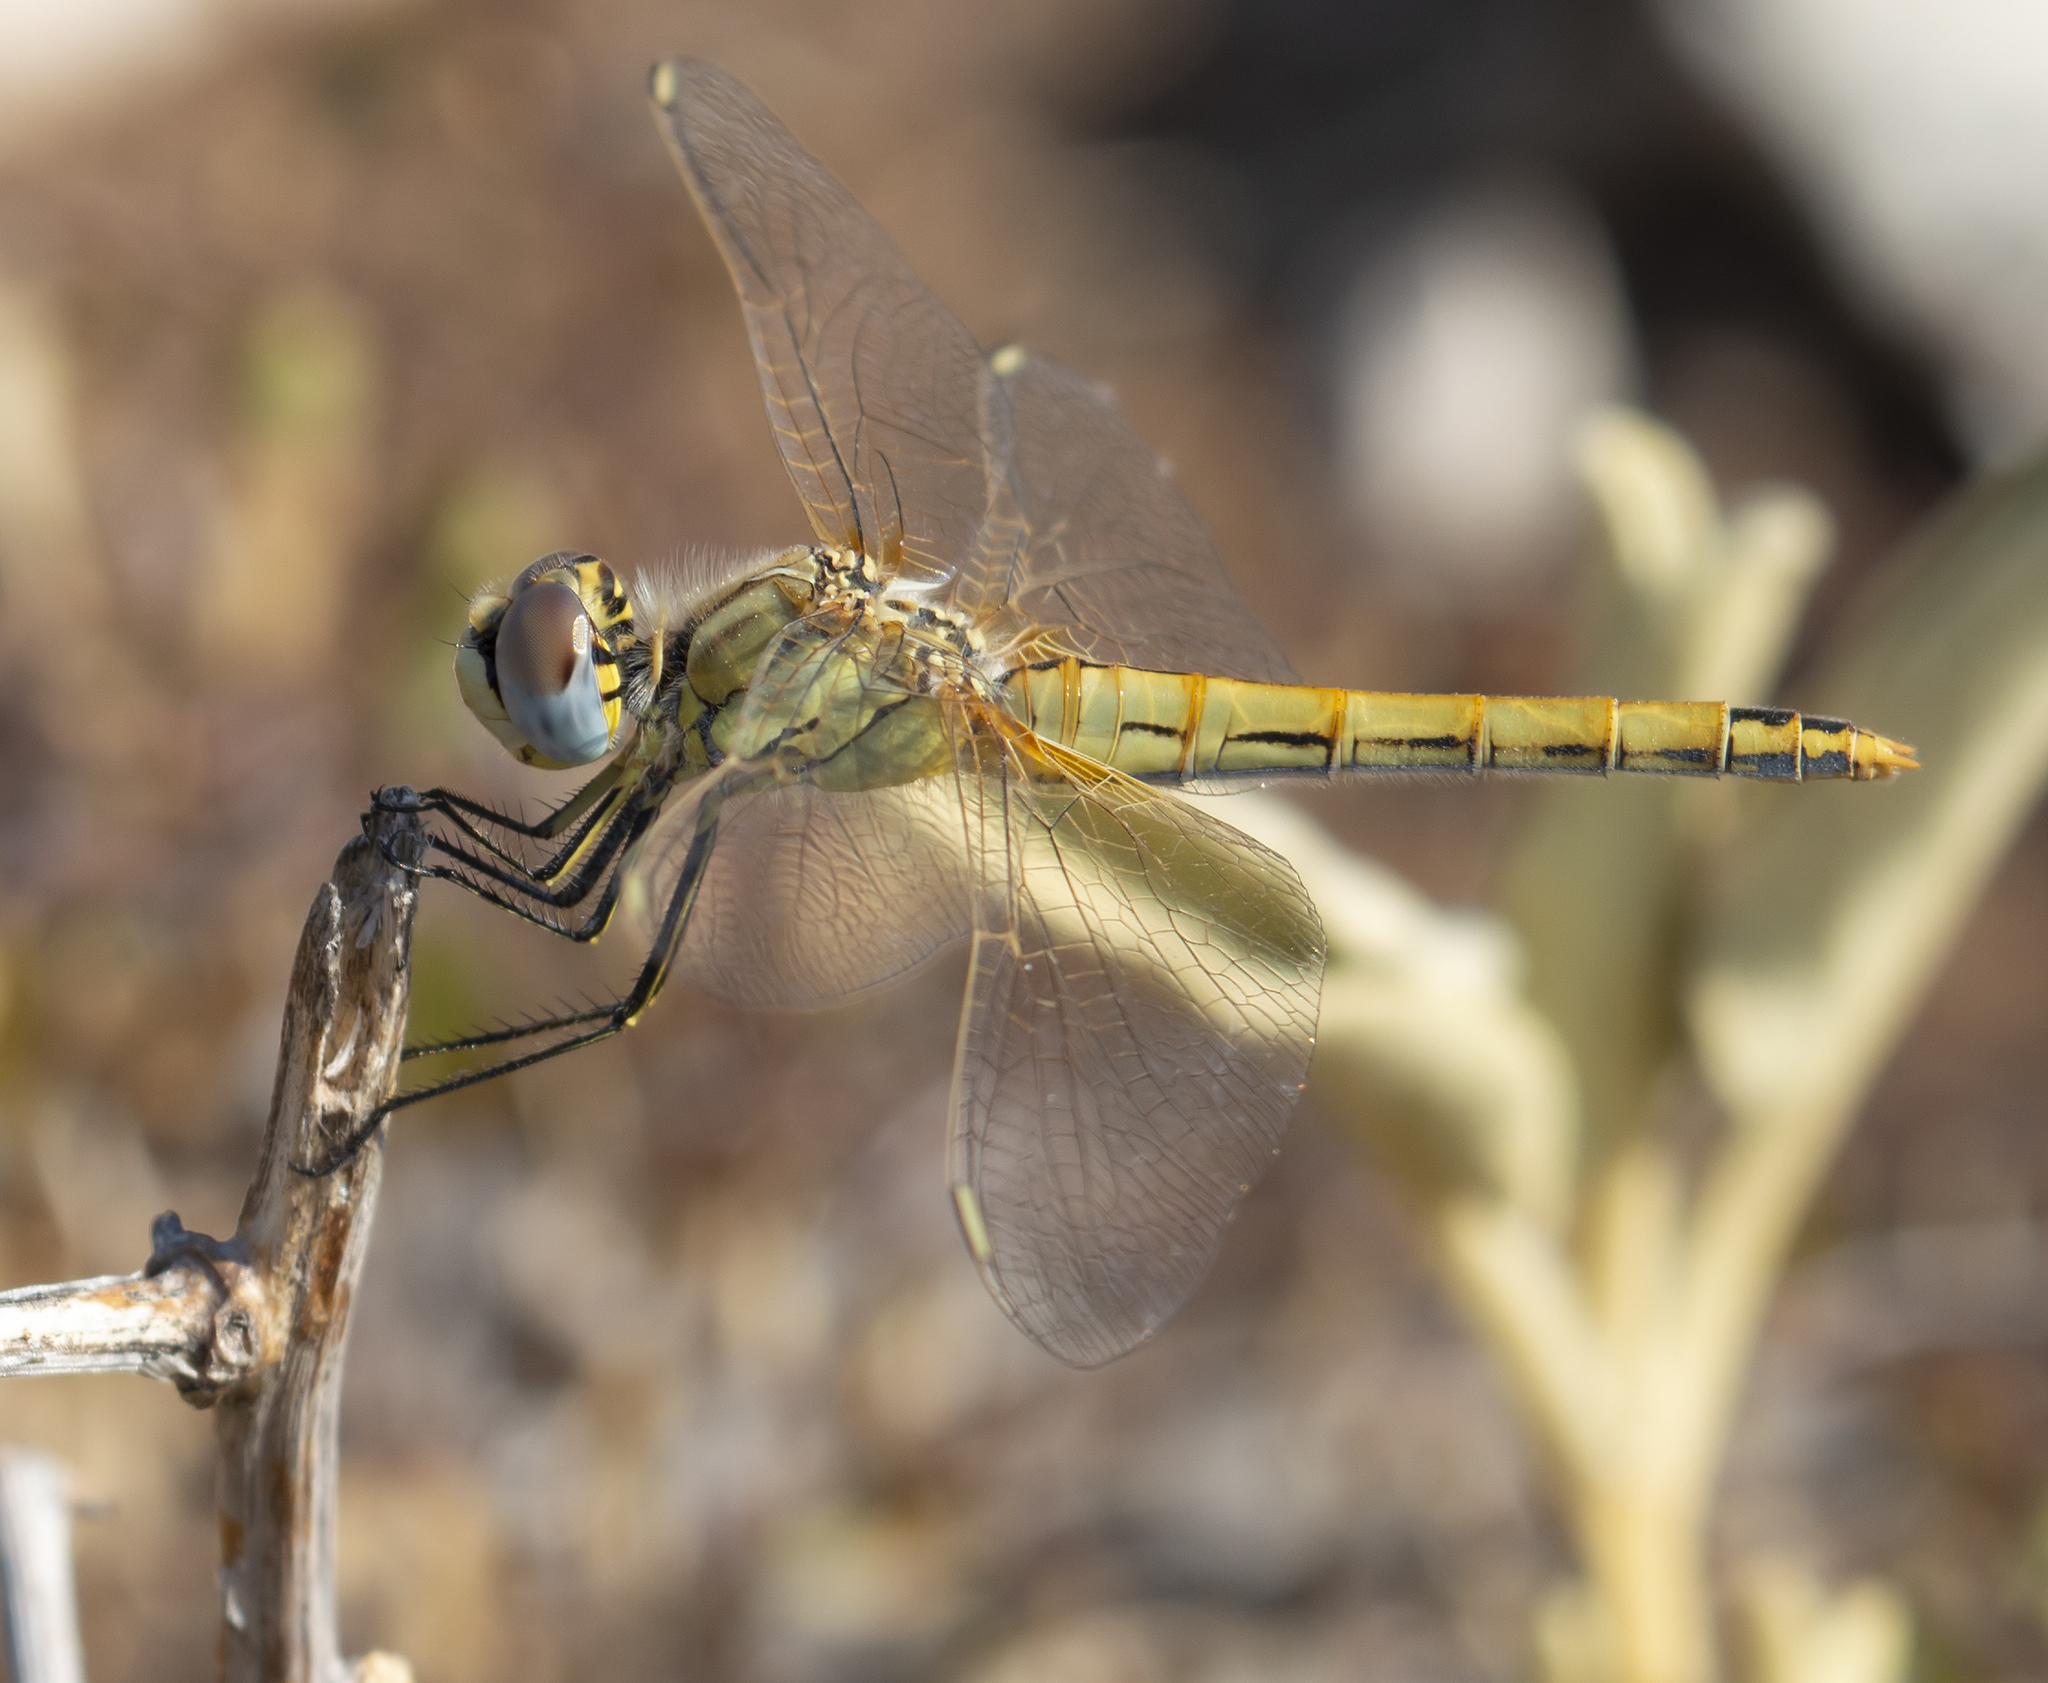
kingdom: Animalia
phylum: Arthropoda
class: Insecta
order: Odonata
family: Libellulidae
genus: Sympetrum
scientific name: Sympetrum fonscolombii
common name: Red-veined darter
